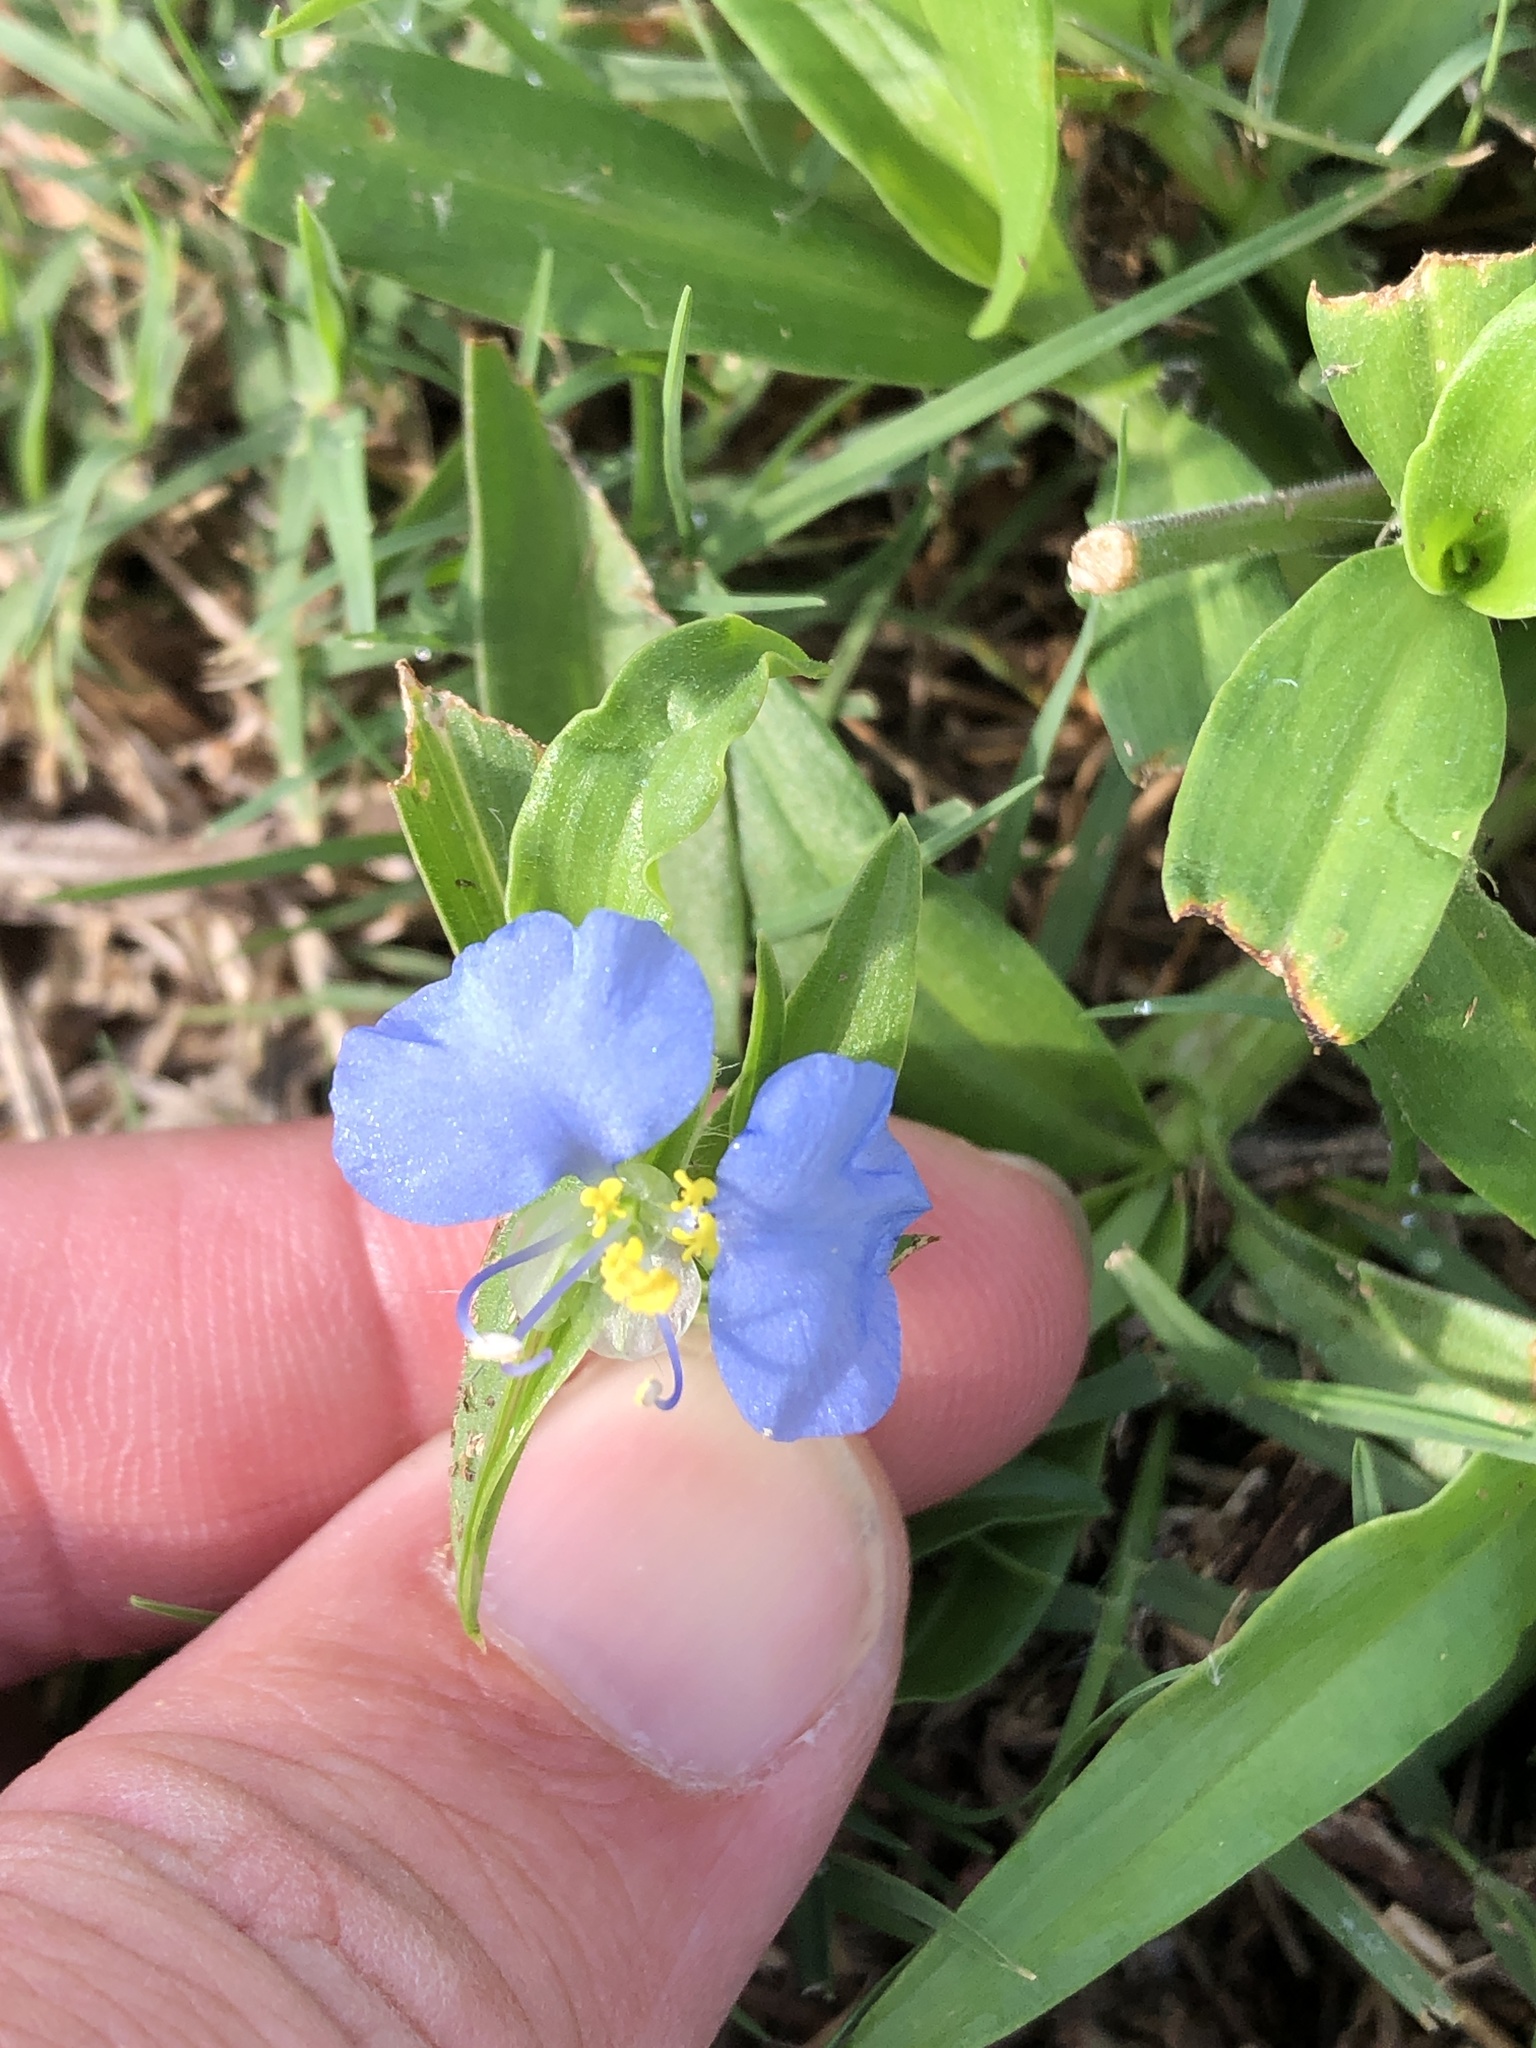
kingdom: Plantae
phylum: Tracheophyta
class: Liliopsida
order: Commelinales
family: Commelinaceae
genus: Commelina
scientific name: Commelina erecta
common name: Blousel blommetjie
